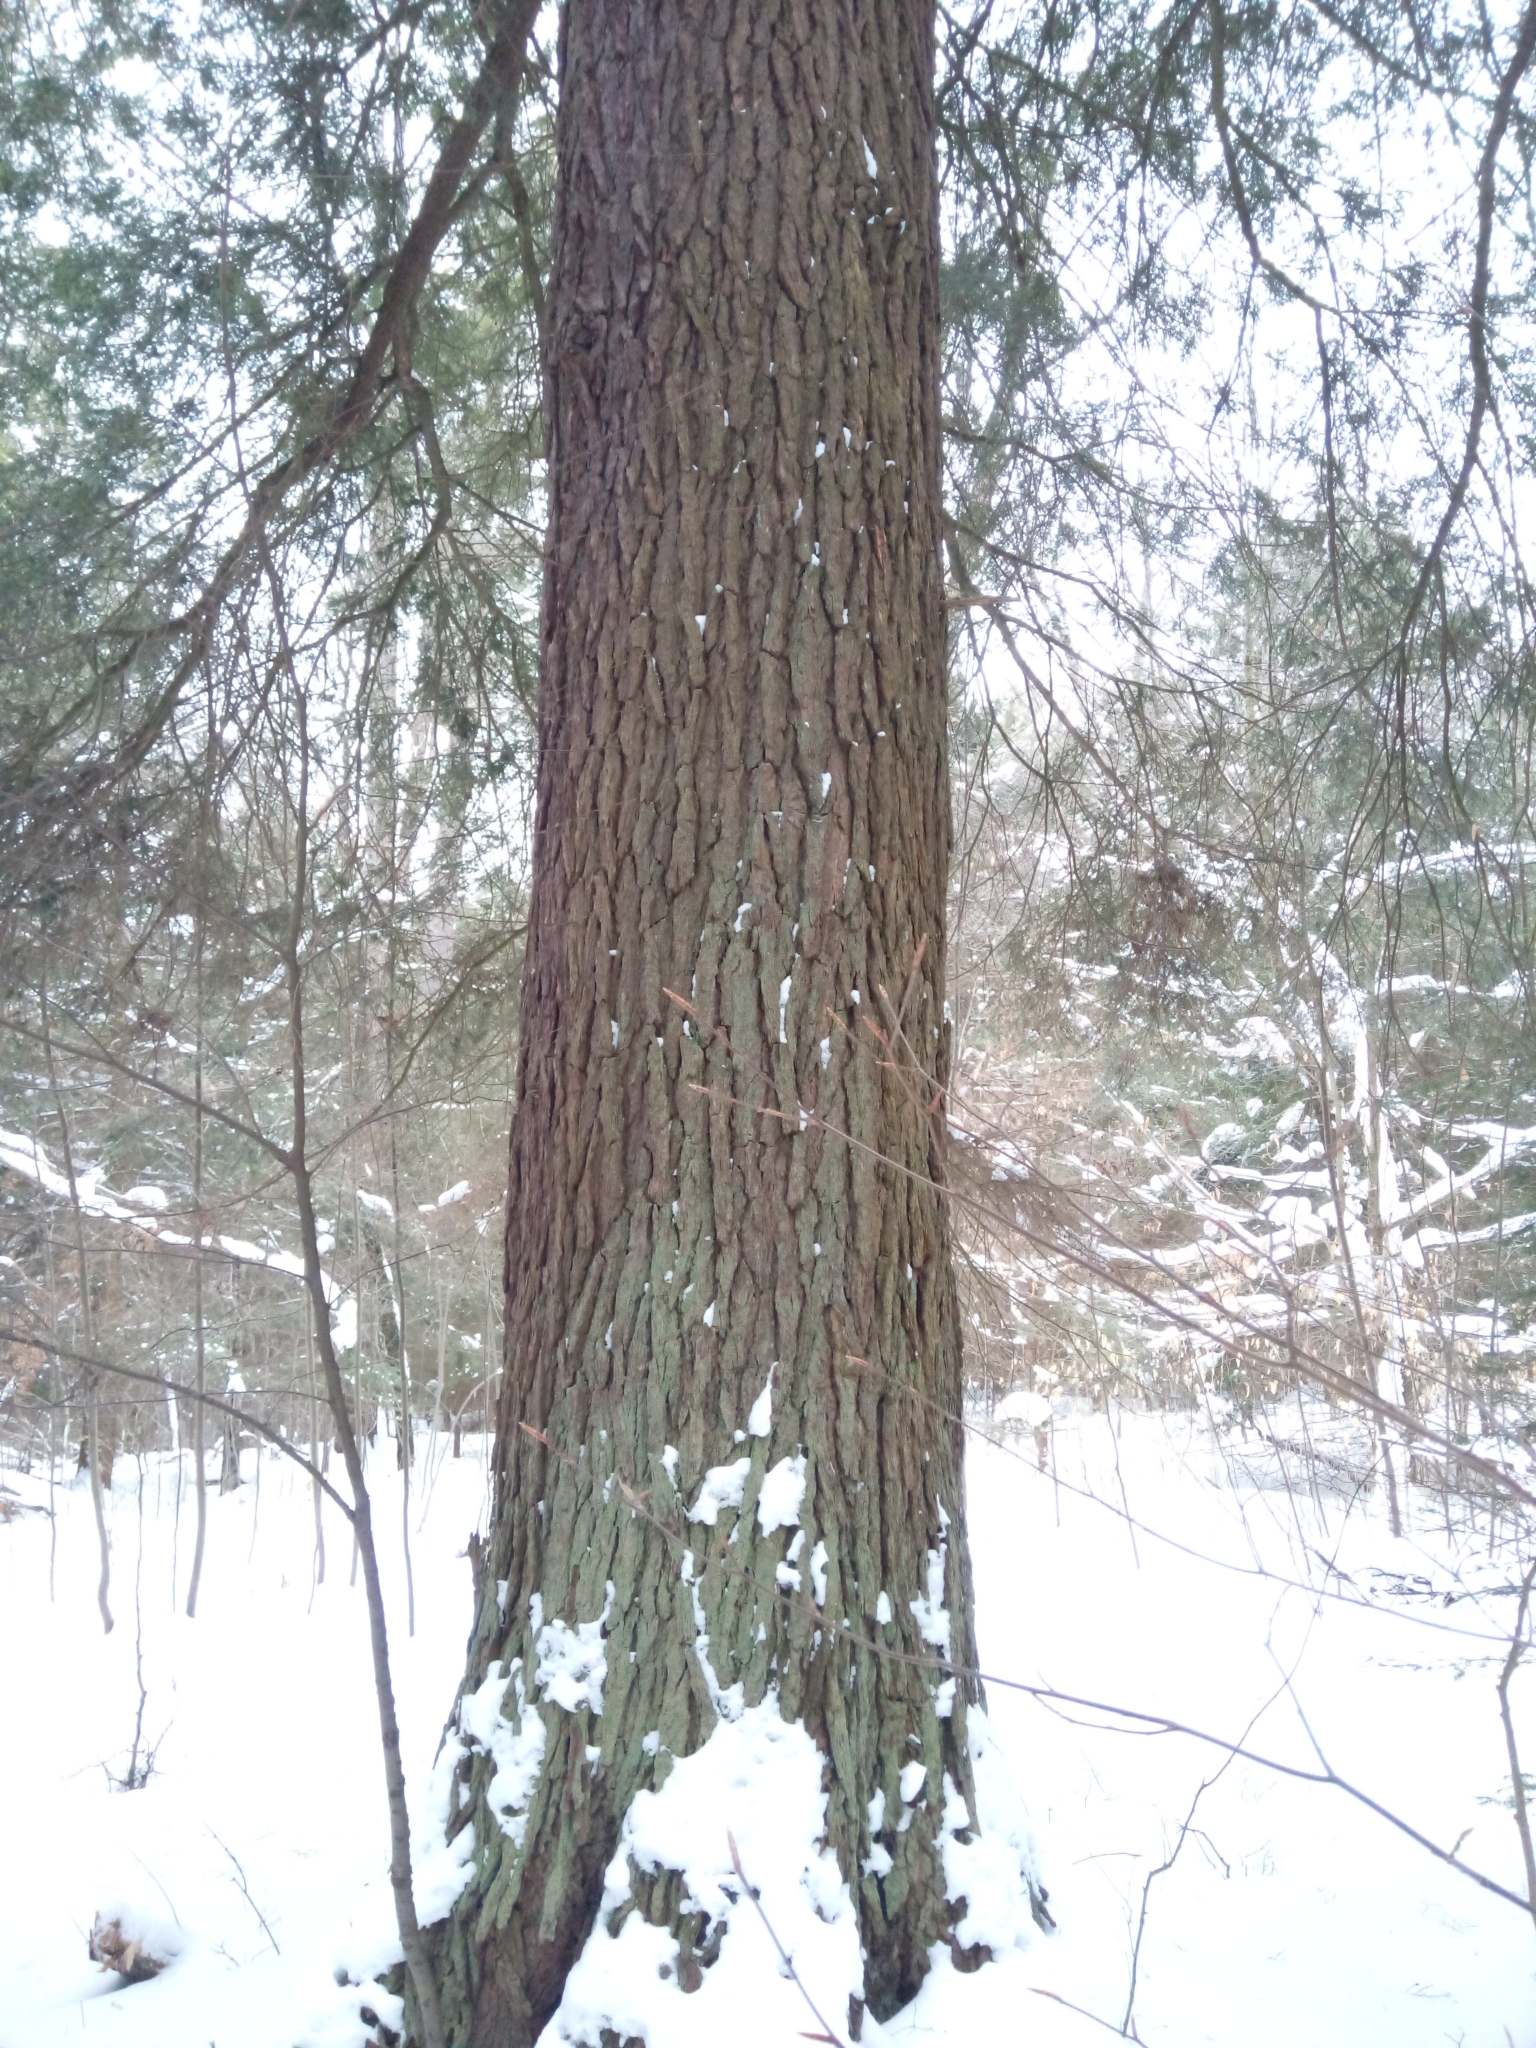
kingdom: Plantae
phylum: Tracheophyta
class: Pinopsida
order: Pinales
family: Pinaceae
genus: Tsuga
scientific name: Tsuga canadensis
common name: Eastern hemlock
